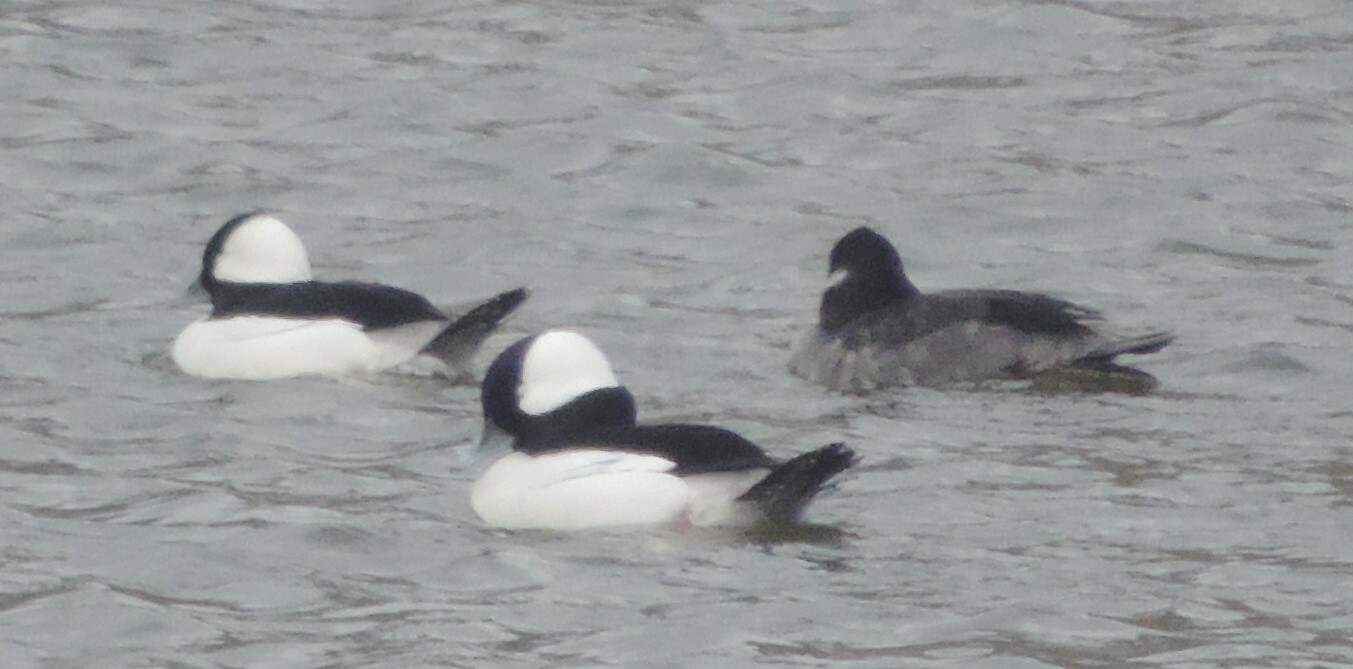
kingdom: Animalia
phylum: Chordata
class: Aves
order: Anseriformes
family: Anatidae
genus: Bucephala
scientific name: Bucephala albeola
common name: Bufflehead
